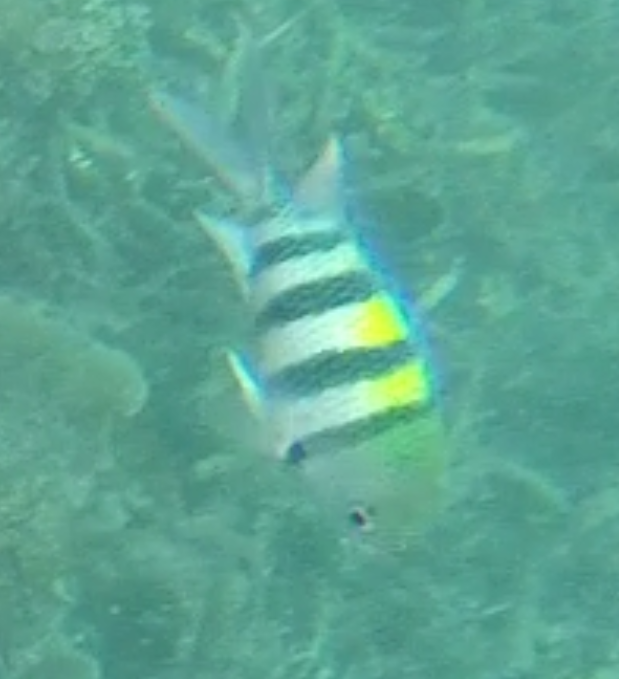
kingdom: Animalia
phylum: Chordata
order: Perciformes
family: Pomacentridae
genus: Abudefduf
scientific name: Abudefduf vaigiensis
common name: Indo-pacific sergeant
